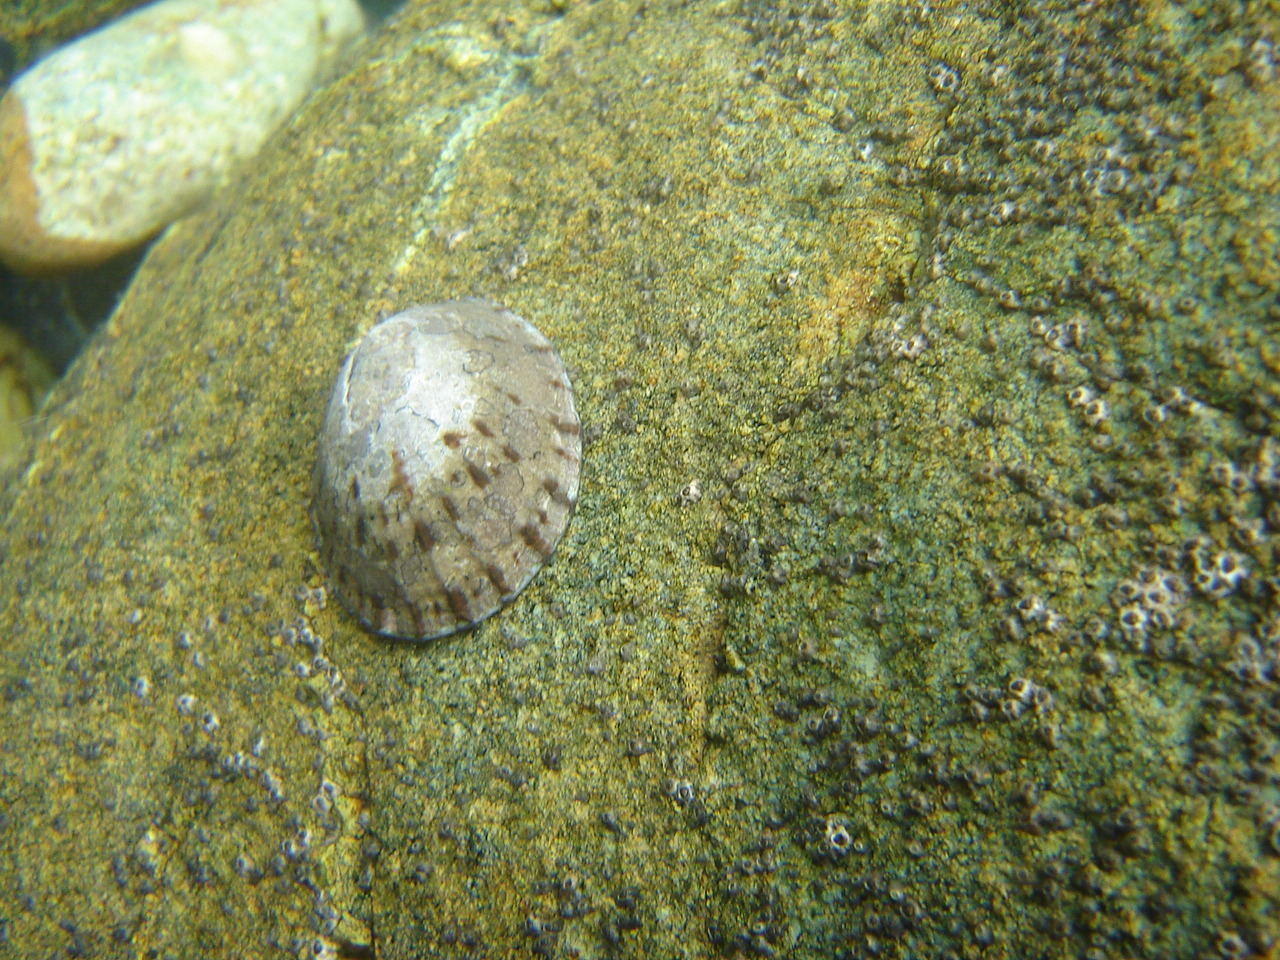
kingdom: Animalia
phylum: Mollusca
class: Gastropoda
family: Nacellidae
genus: Cellana
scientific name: Cellana radians
